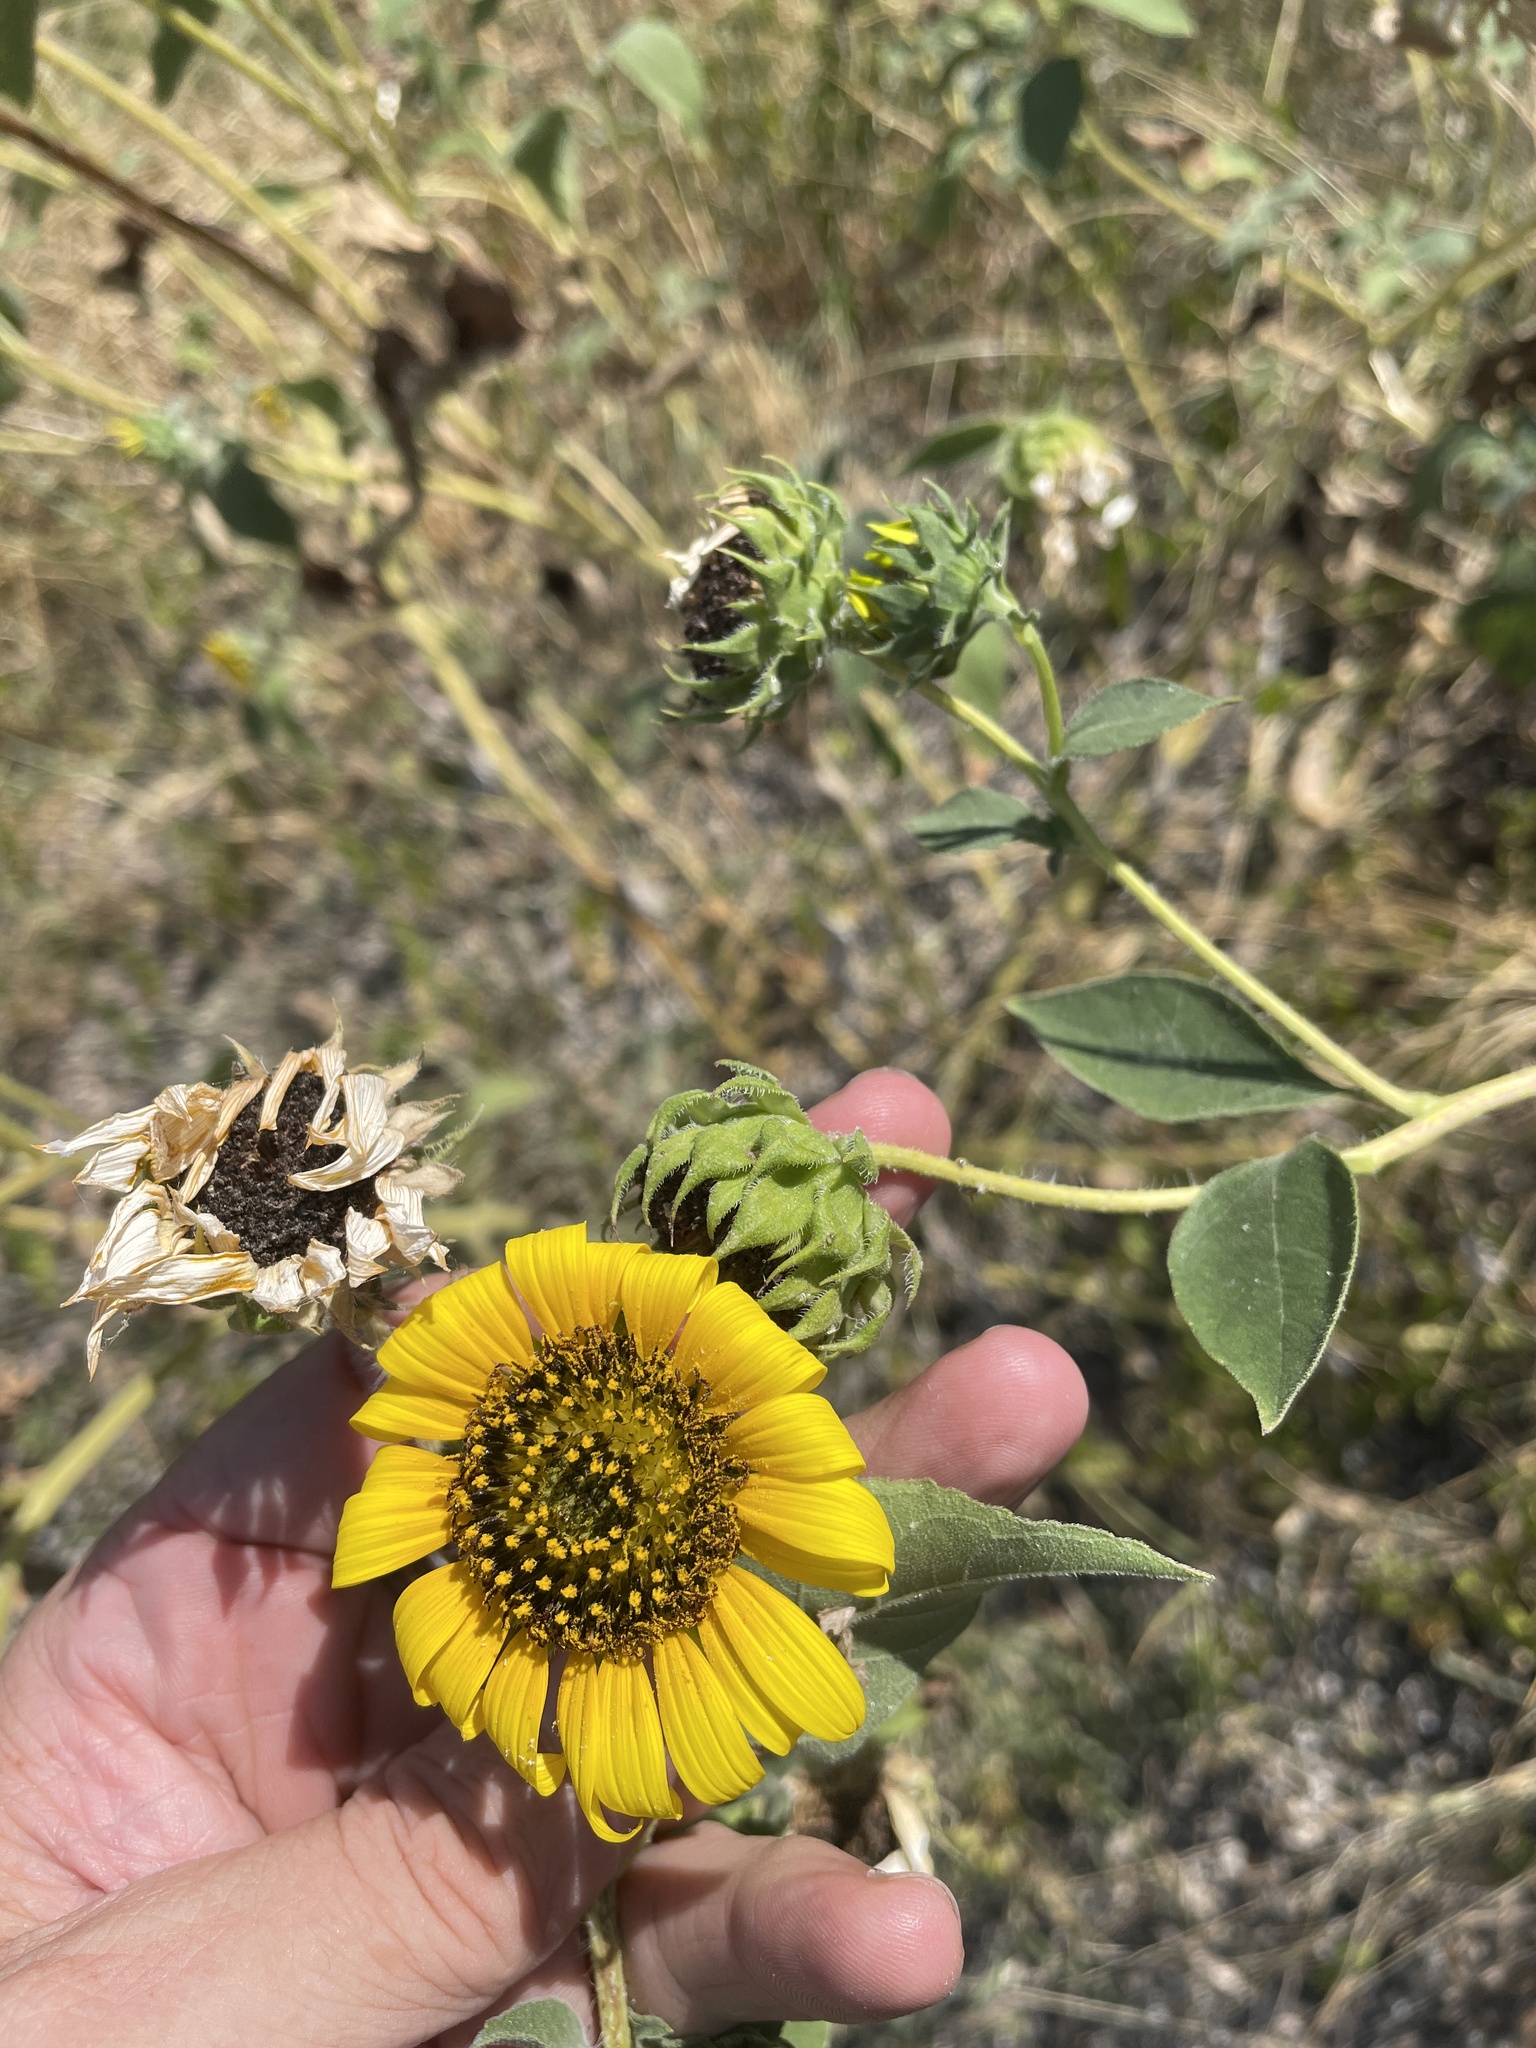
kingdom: Plantae
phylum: Tracheophyta
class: Magnoliopsida
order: Asterales
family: Asteraceae
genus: Helianthus
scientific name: Helianthus annuus
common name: Sunflower
